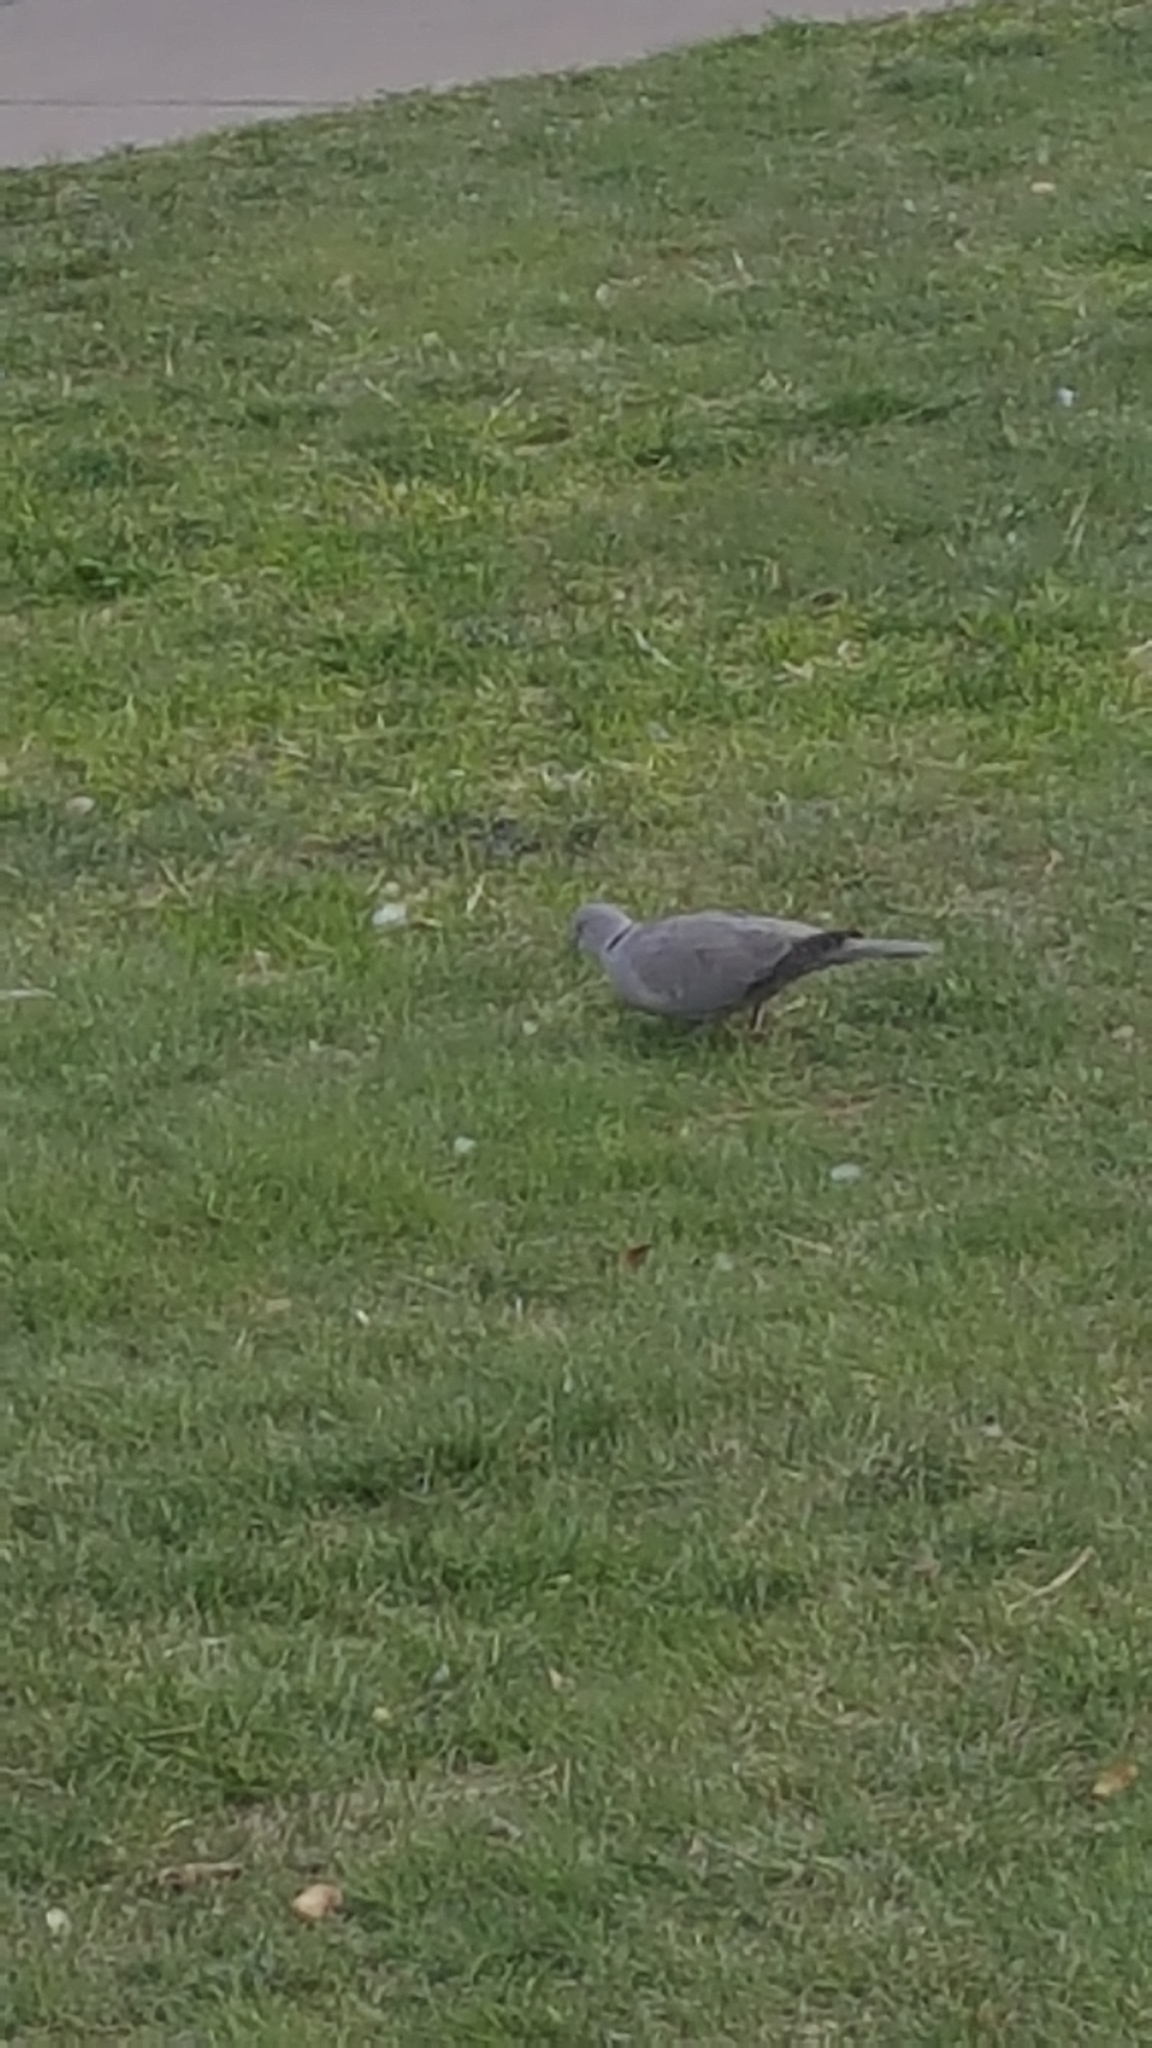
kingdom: Animalia
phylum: Chordata
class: Aves
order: Columbiformes
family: Columbidae
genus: Streptopelia
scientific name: Streptopelia decaocto
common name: Eurasian collared dove
